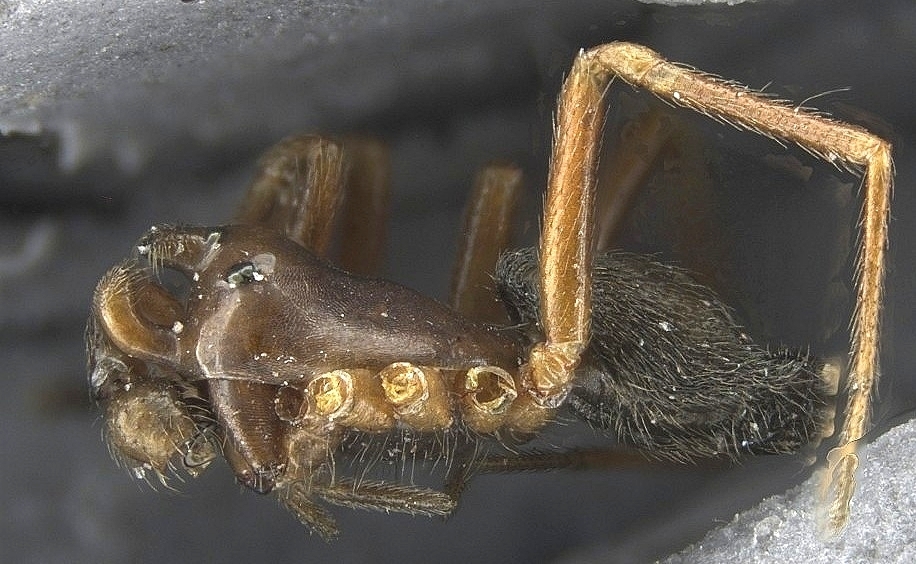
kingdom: Animalia
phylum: Arthropoda
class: Arachnida
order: Araneae
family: Linyphiidae
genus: Coreorgonal
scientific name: Coreorgonal bicornis
